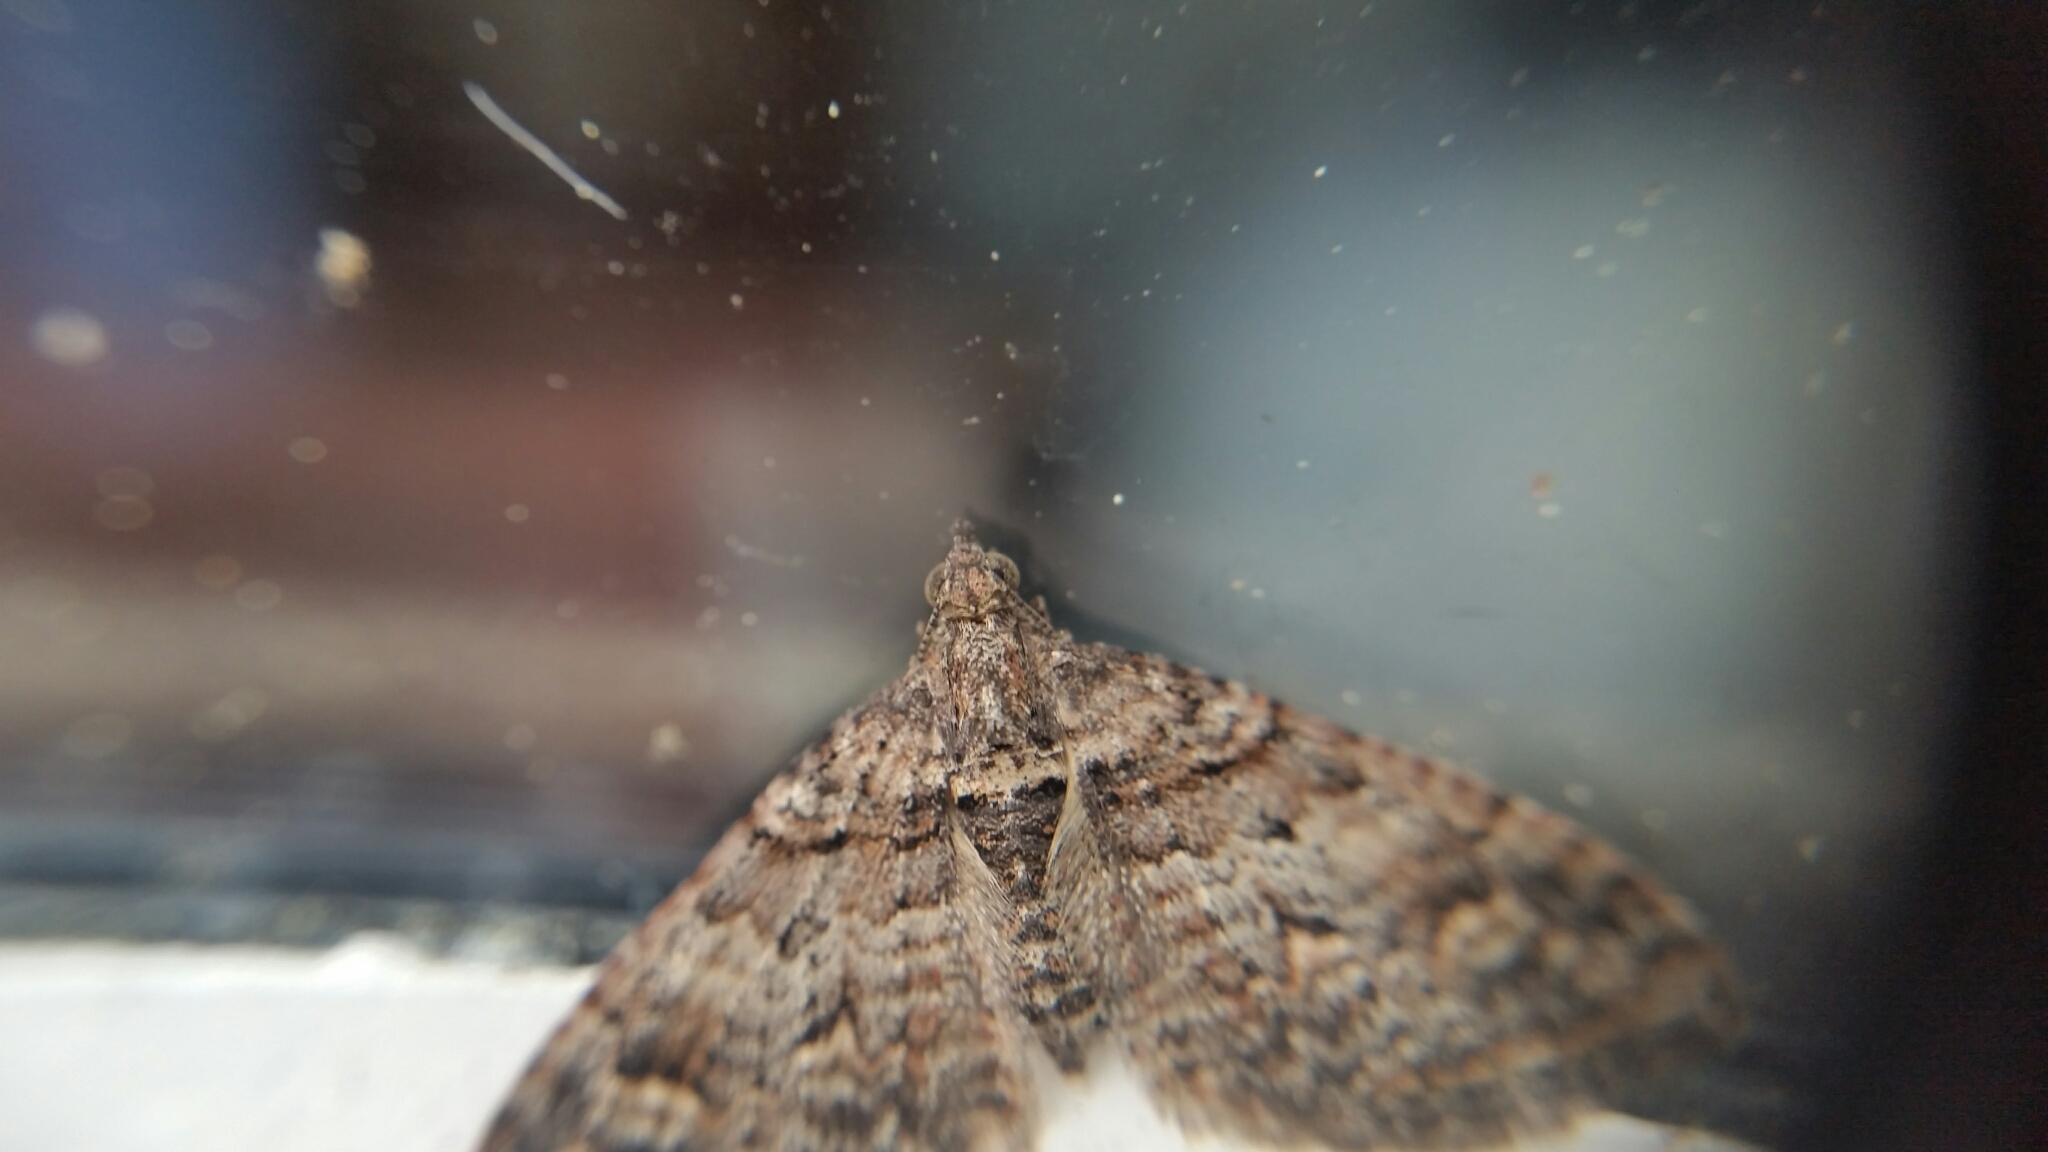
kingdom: Animalia
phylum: Arthropoda
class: Insecta
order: Lepidoptera
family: Geometridae
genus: Phrissogonus
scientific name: Phrissogonus laticostata
